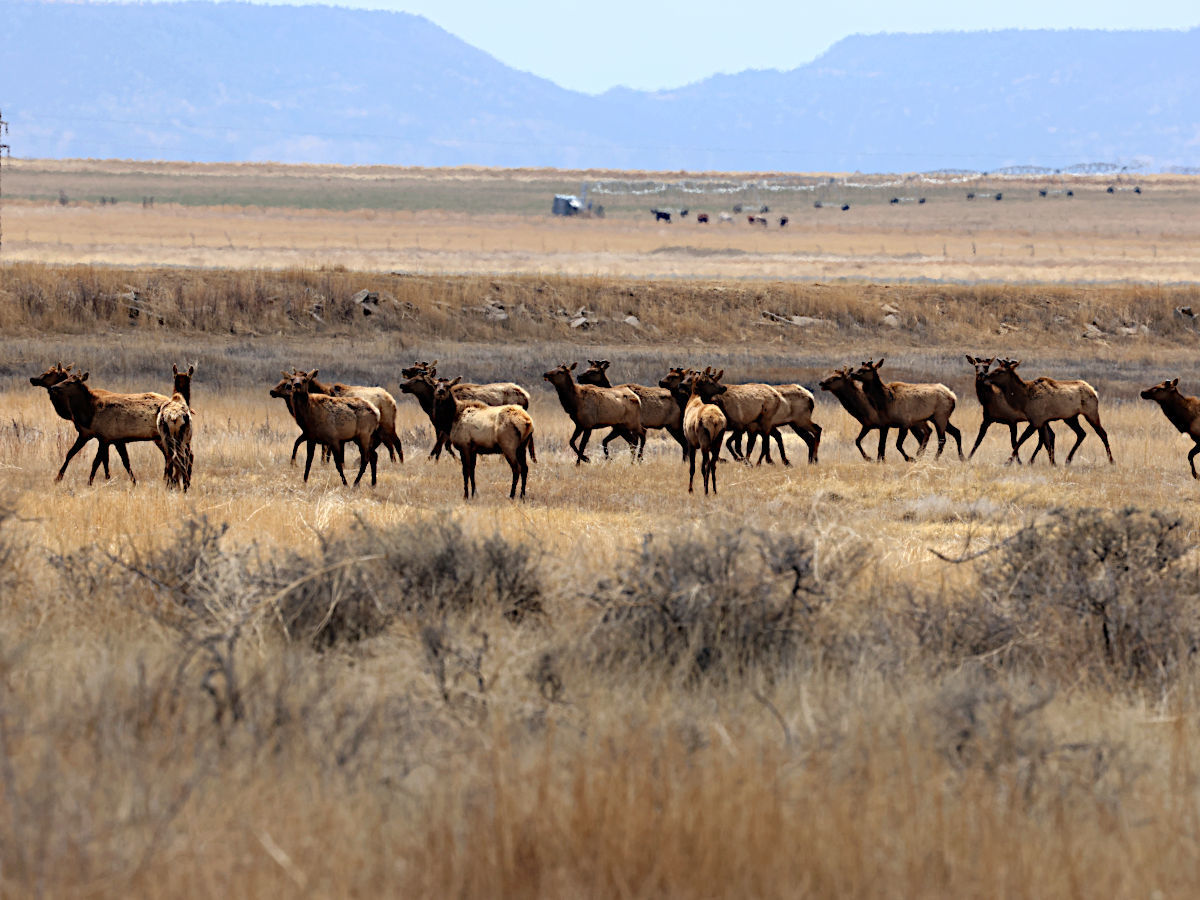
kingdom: Animalia
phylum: Chordata
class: Mammalia
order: Artiodactyla
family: Cervidae
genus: Cervus
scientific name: Cervus elaphus
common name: Red deer
